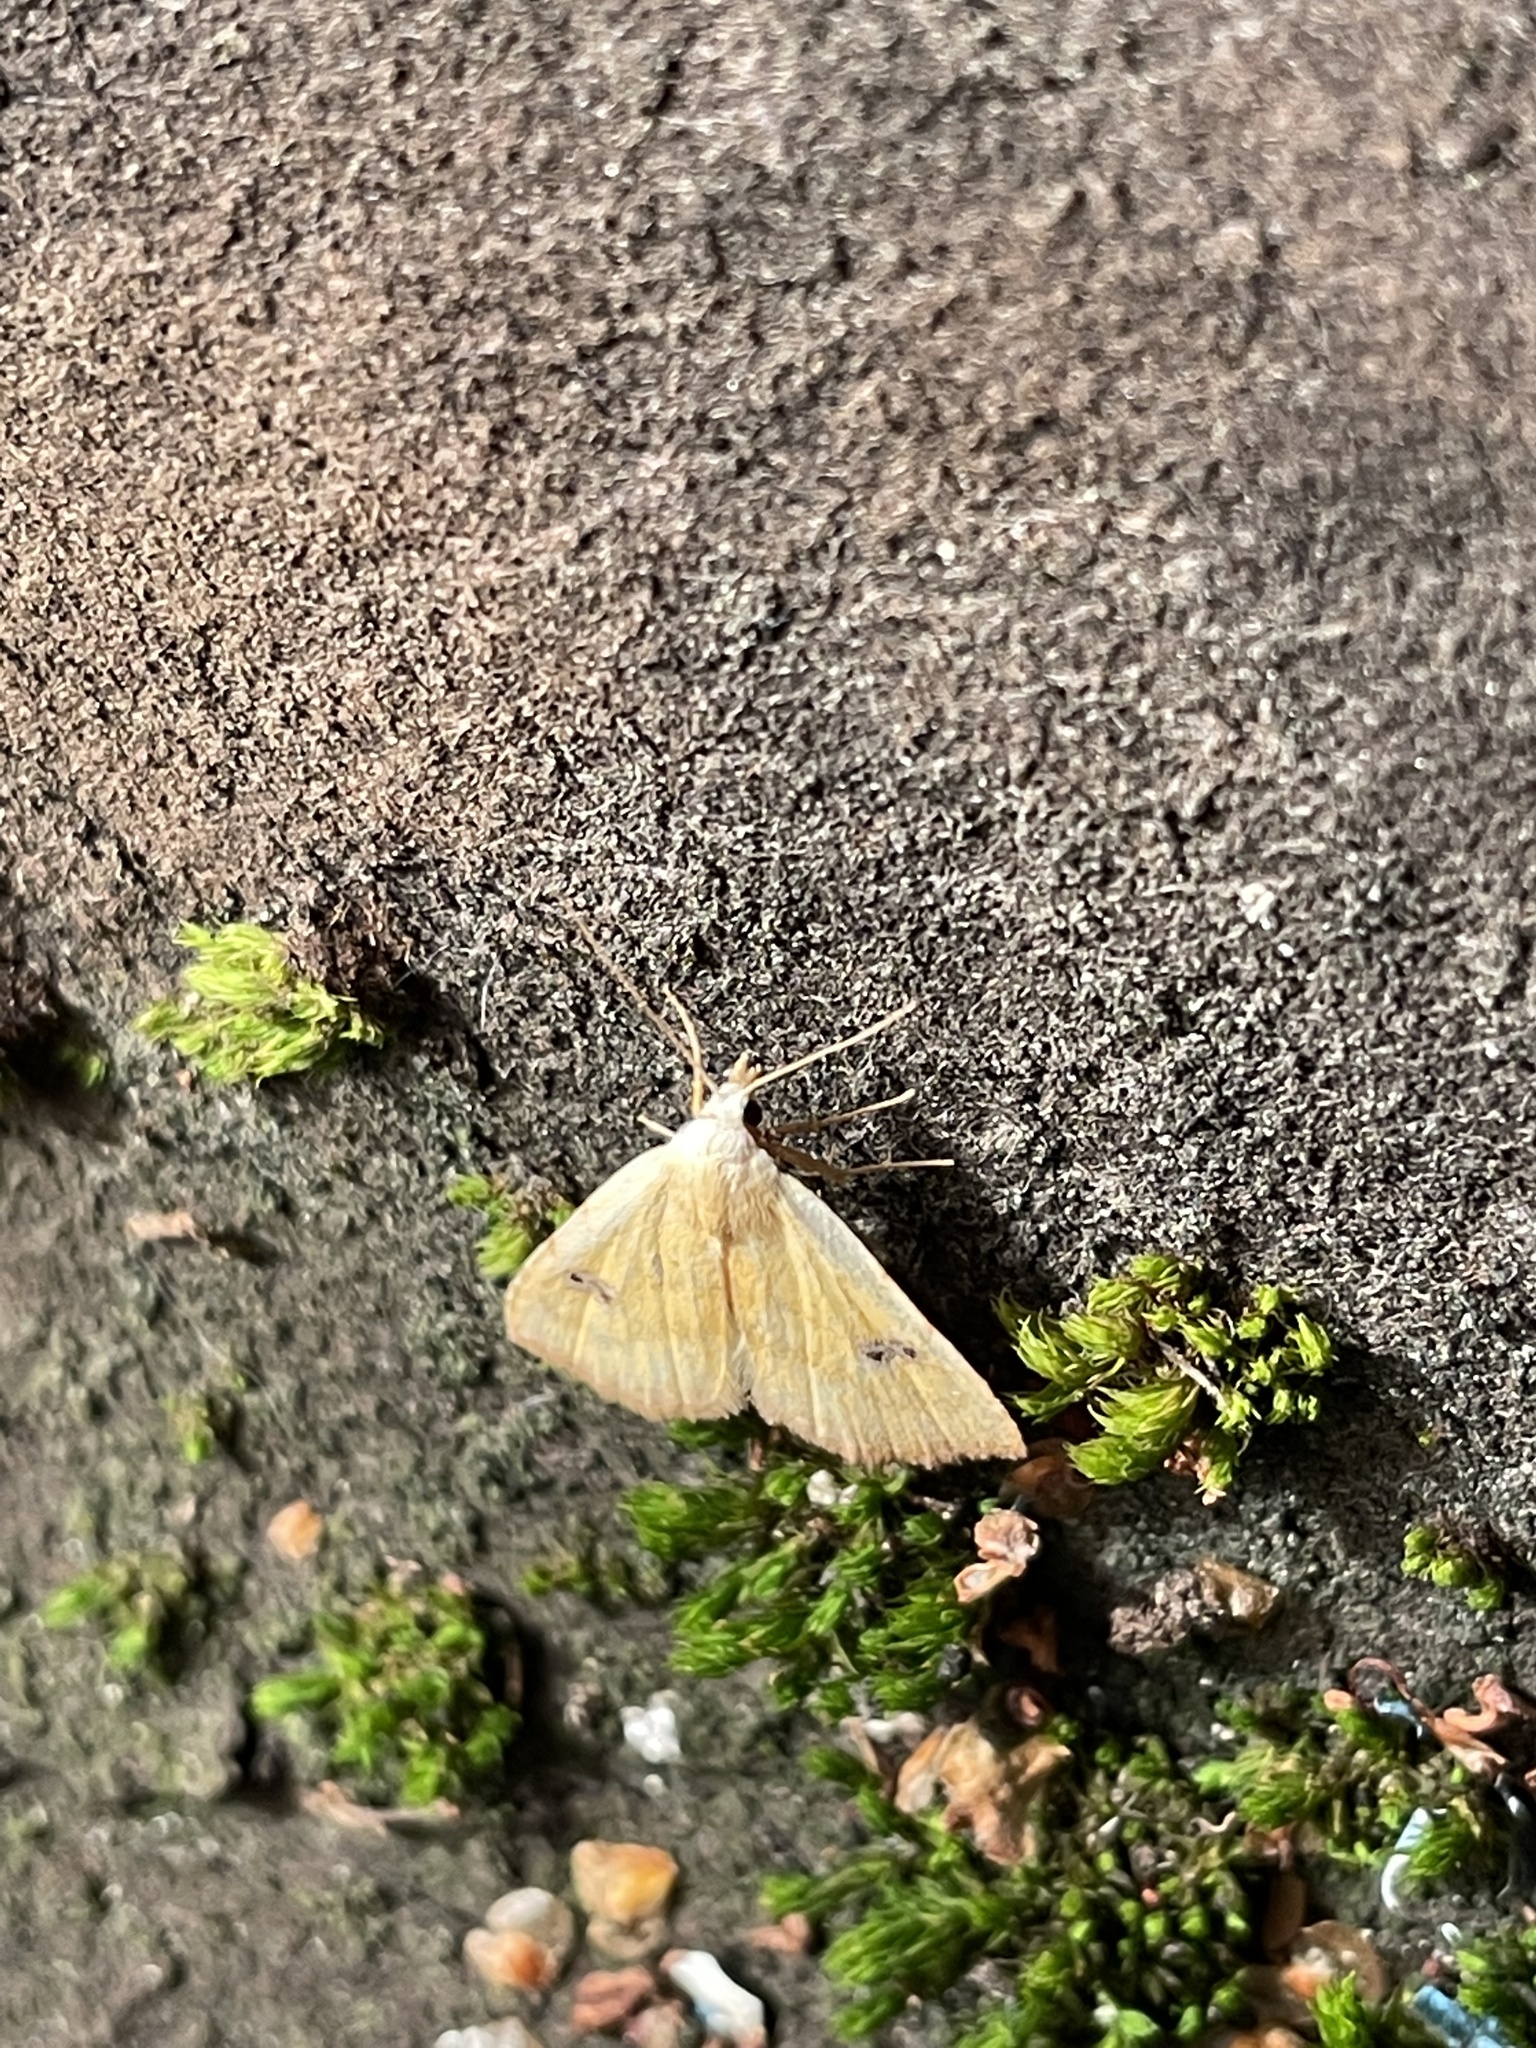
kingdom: Animalia
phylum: Arthropoda
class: Insecta
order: Lepidoptera
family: Erebidae
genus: Rivula
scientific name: Rivula sericealis
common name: Straw dot
